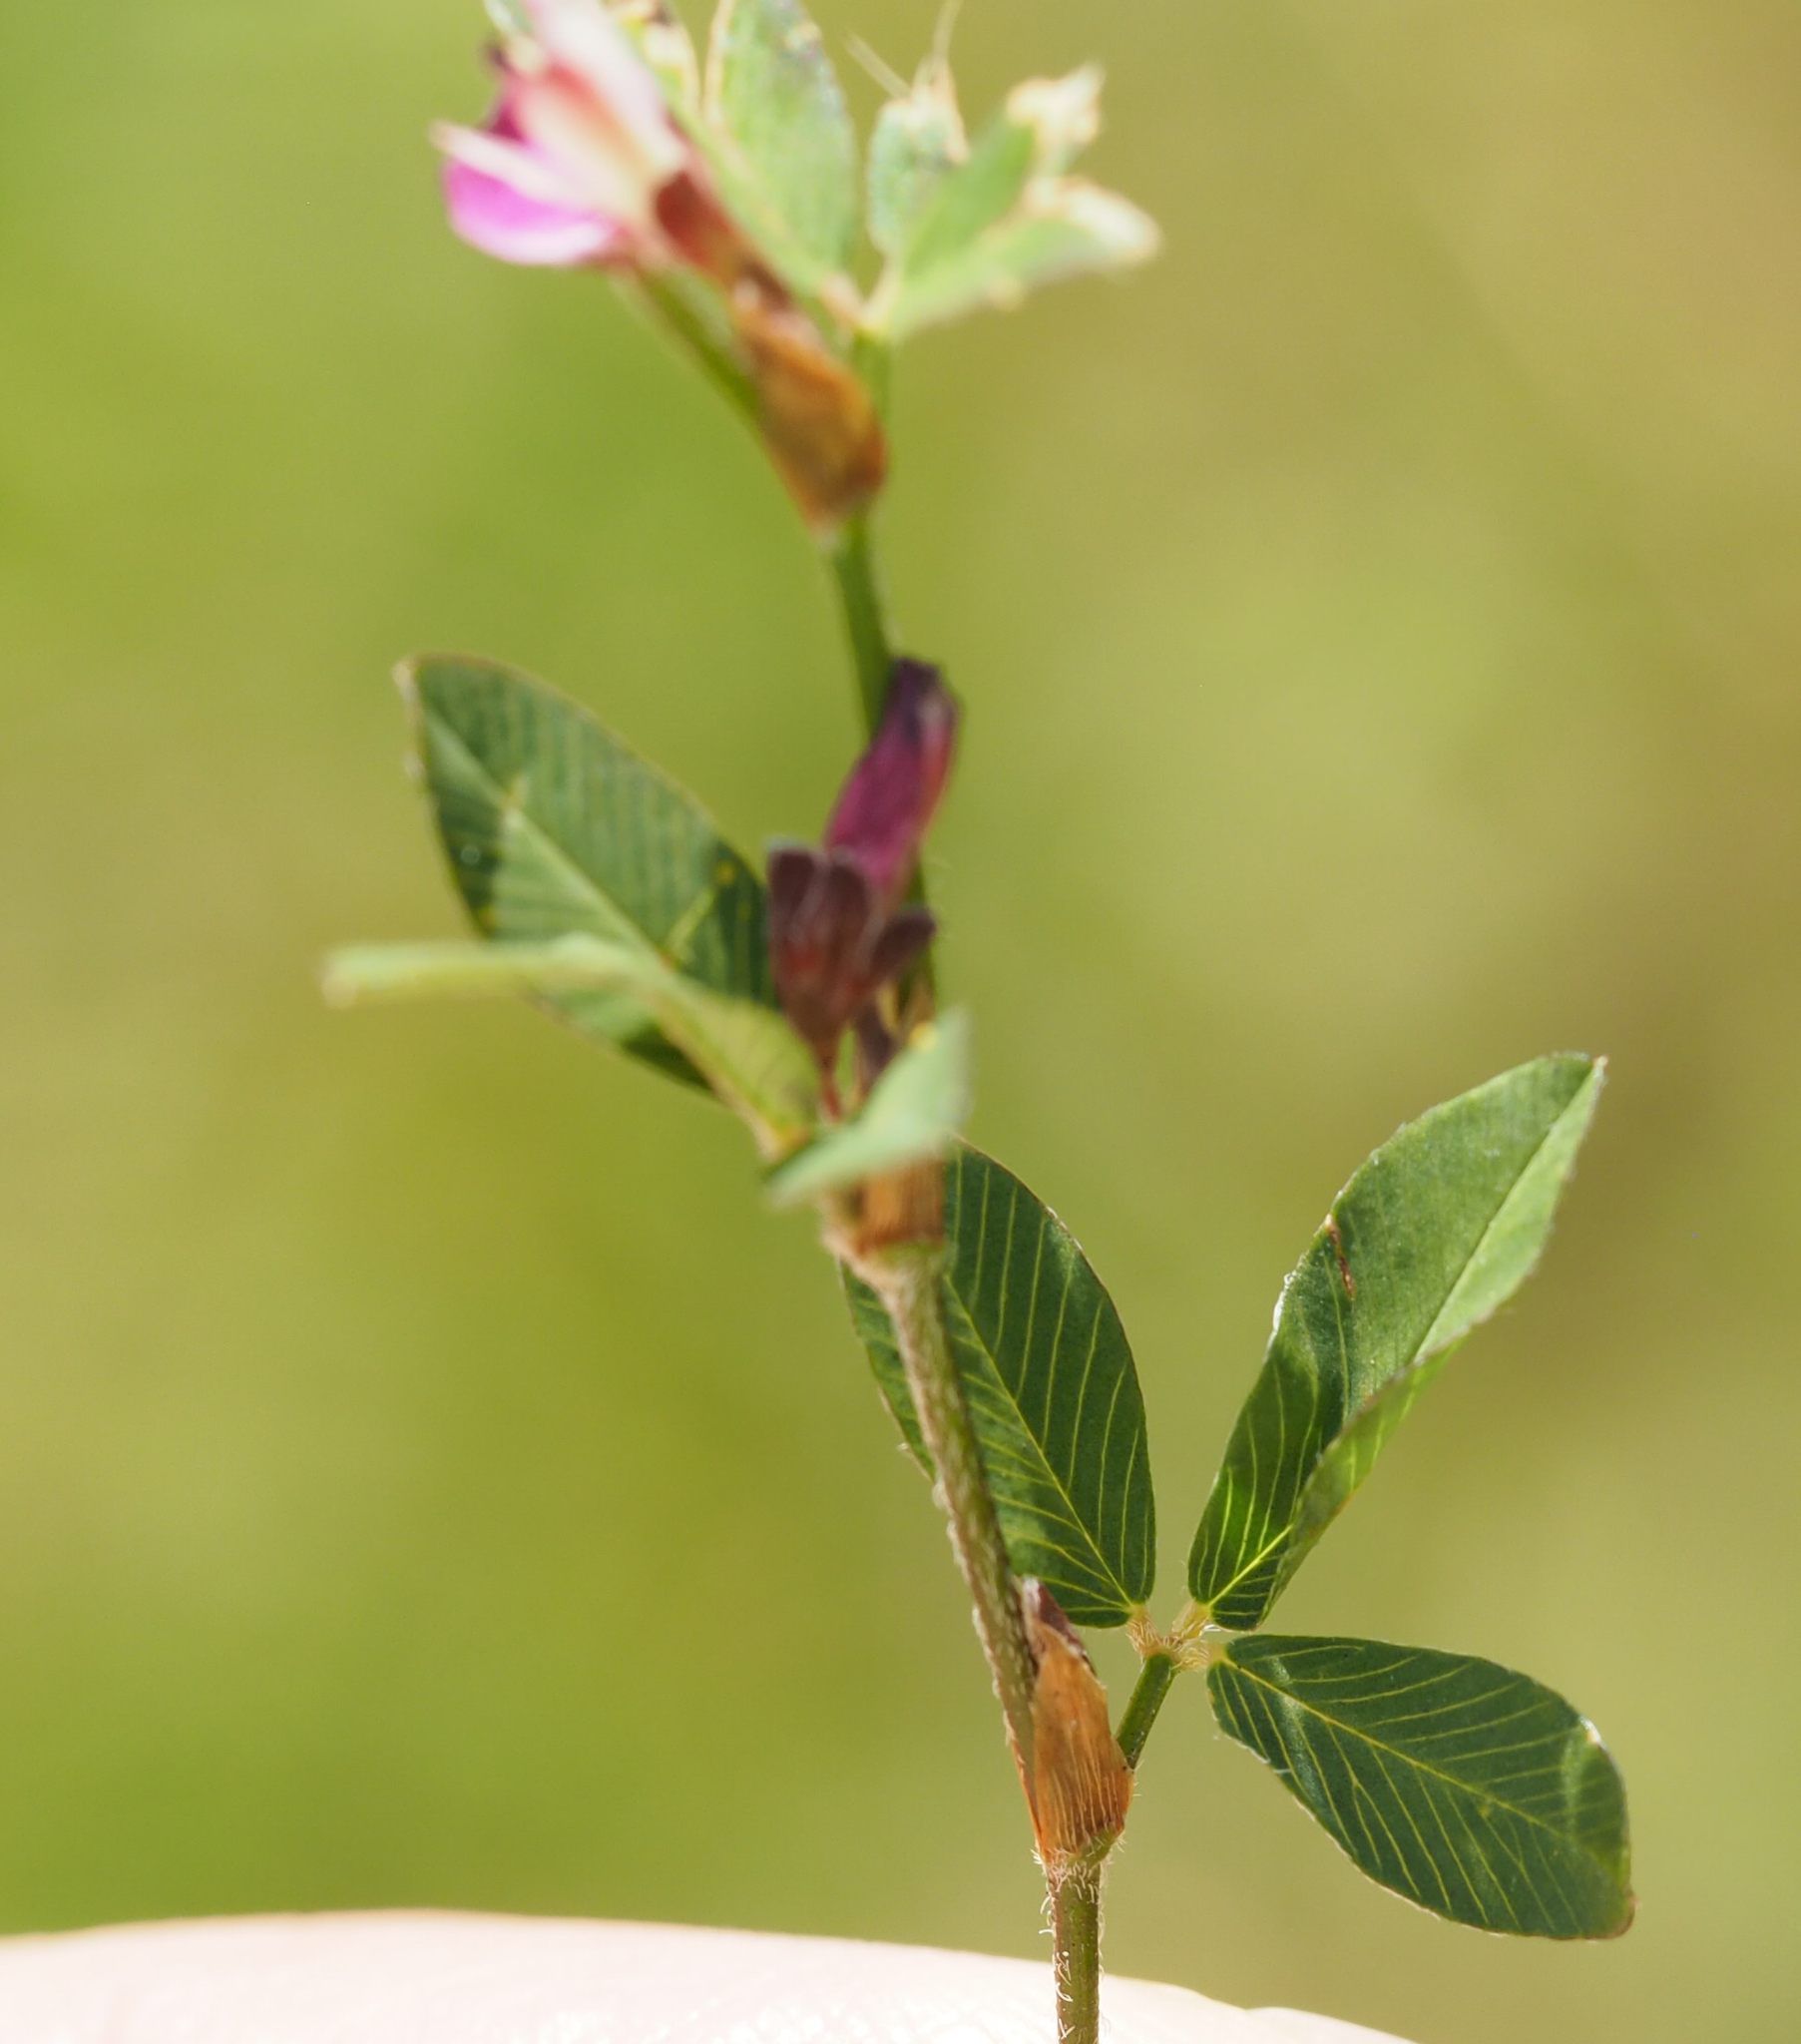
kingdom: Plantae
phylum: Tracheophyta
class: Magnoliopsida
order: Fabales
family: Fabaceae
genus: Kummerowia
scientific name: Kummerowia striata
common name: Japanese clover
